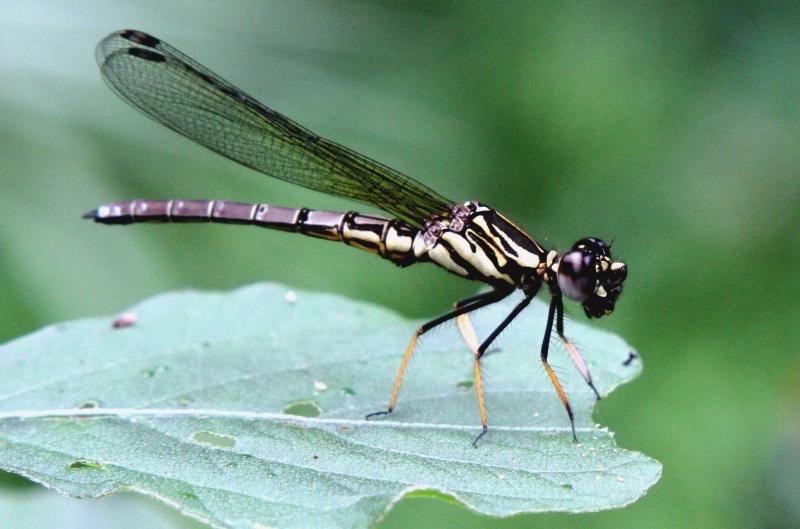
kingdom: Animalia
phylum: Arthropoda
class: Insecta
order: Odonata
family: Chlorocyphidae
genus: Platycypha
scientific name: Platycypha caligata
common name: Dancing jewel
